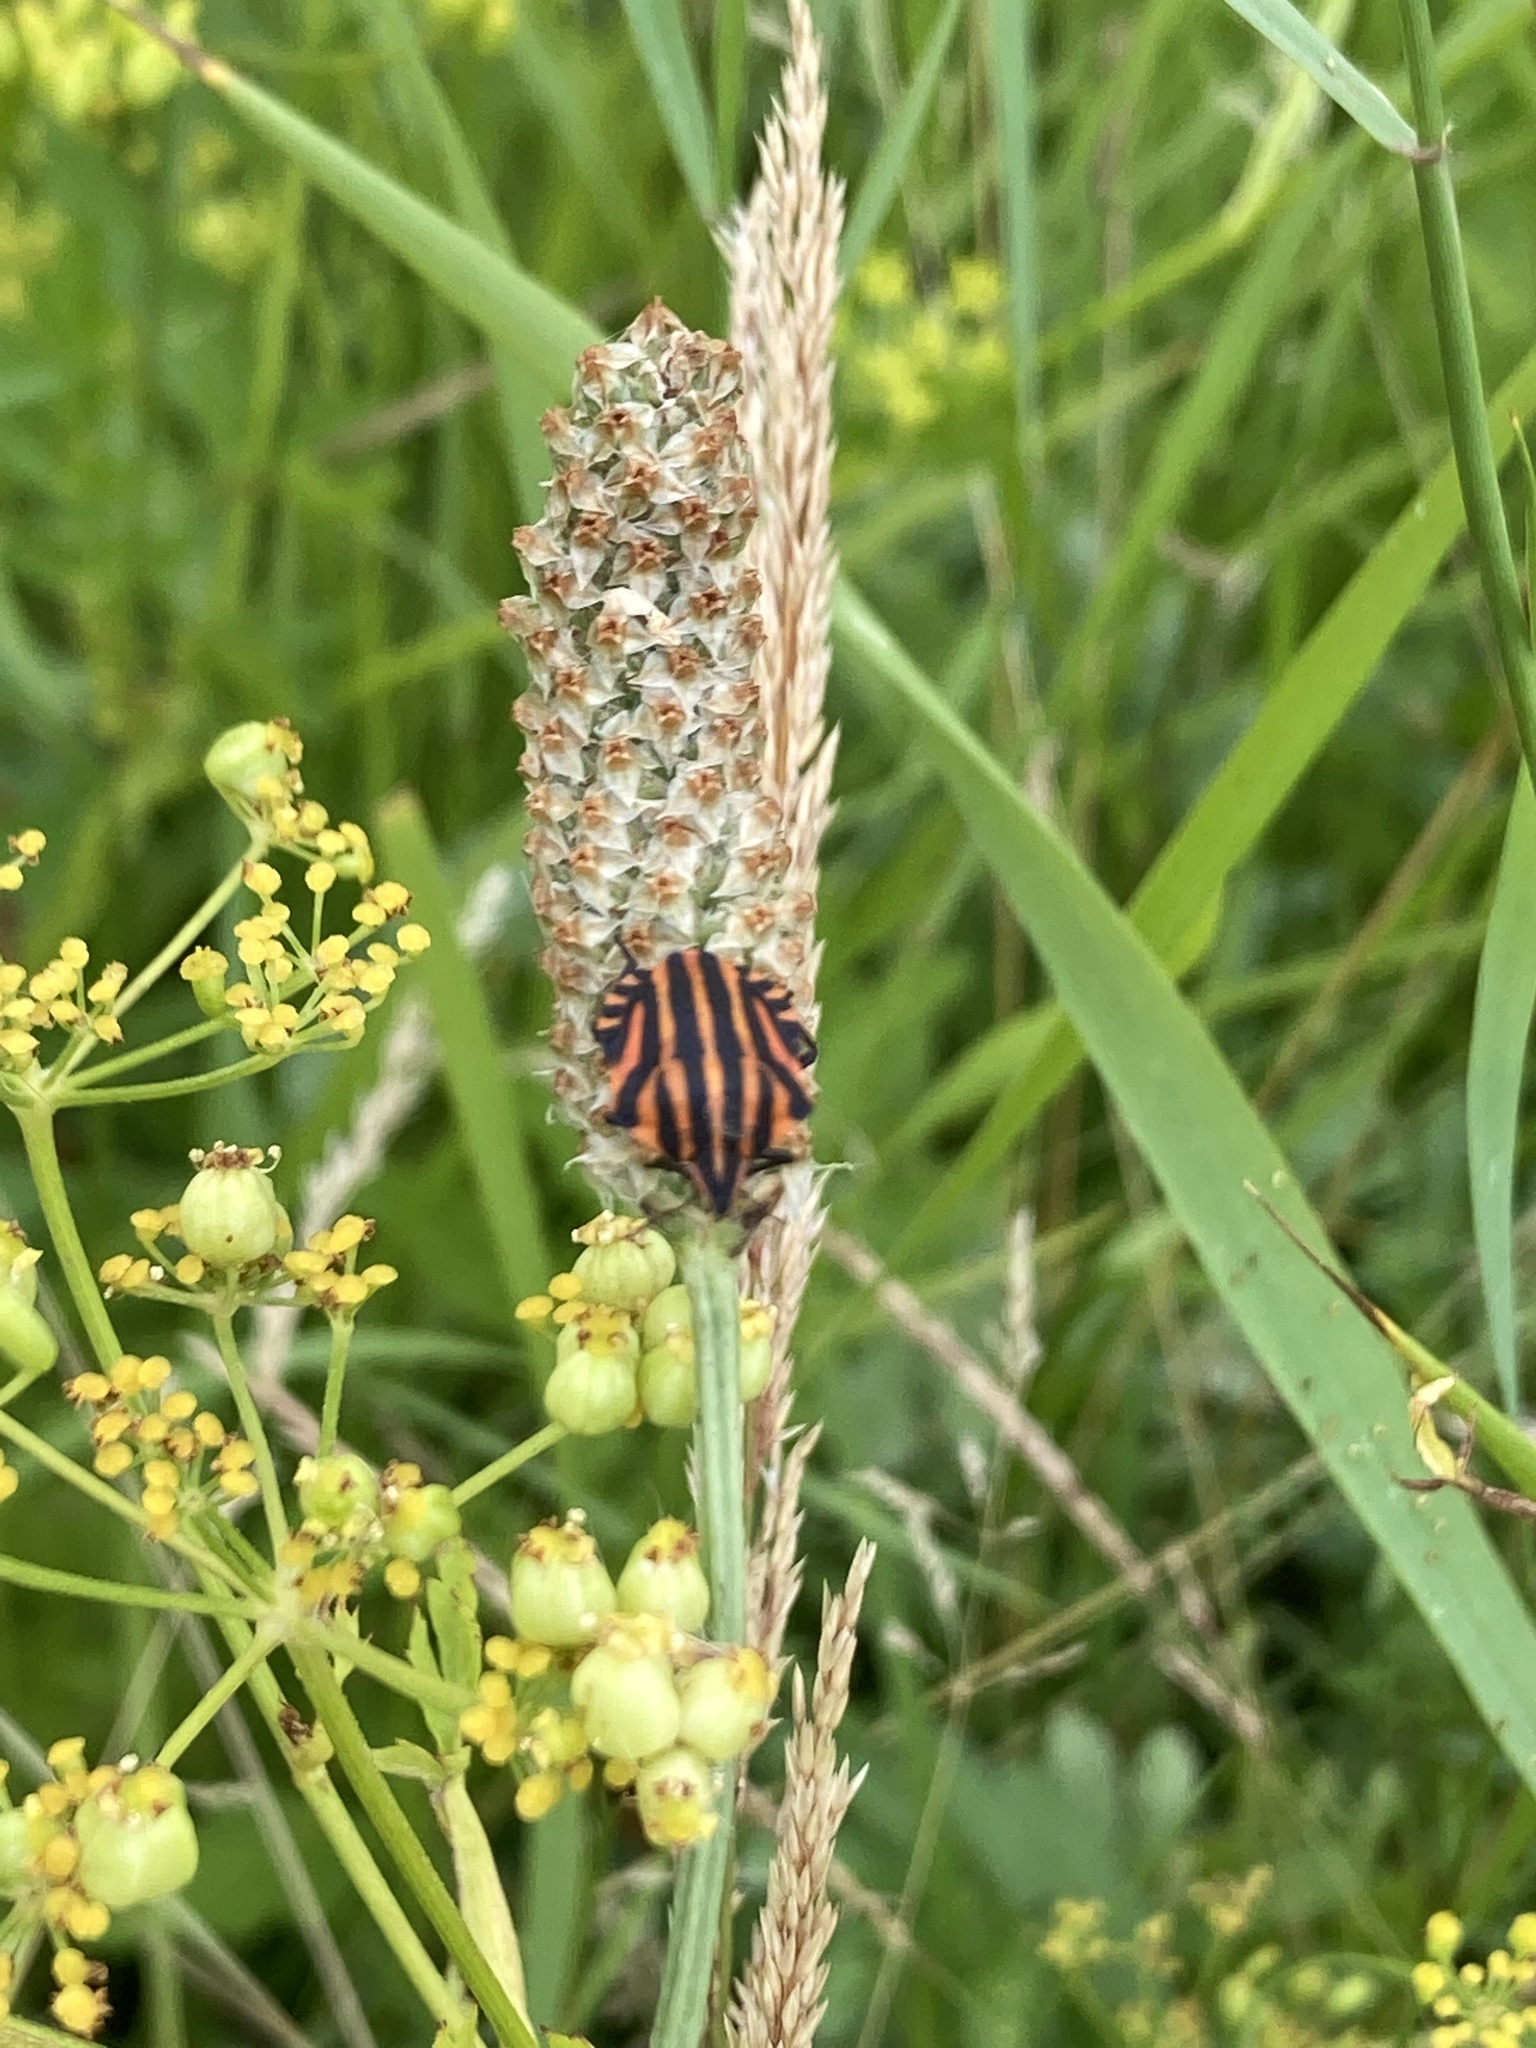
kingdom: Animalia
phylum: Arthropoda
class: Insecta
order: Hemiptera
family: Pentatomidae
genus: Graphosoma
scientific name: Graphosoma italicum
